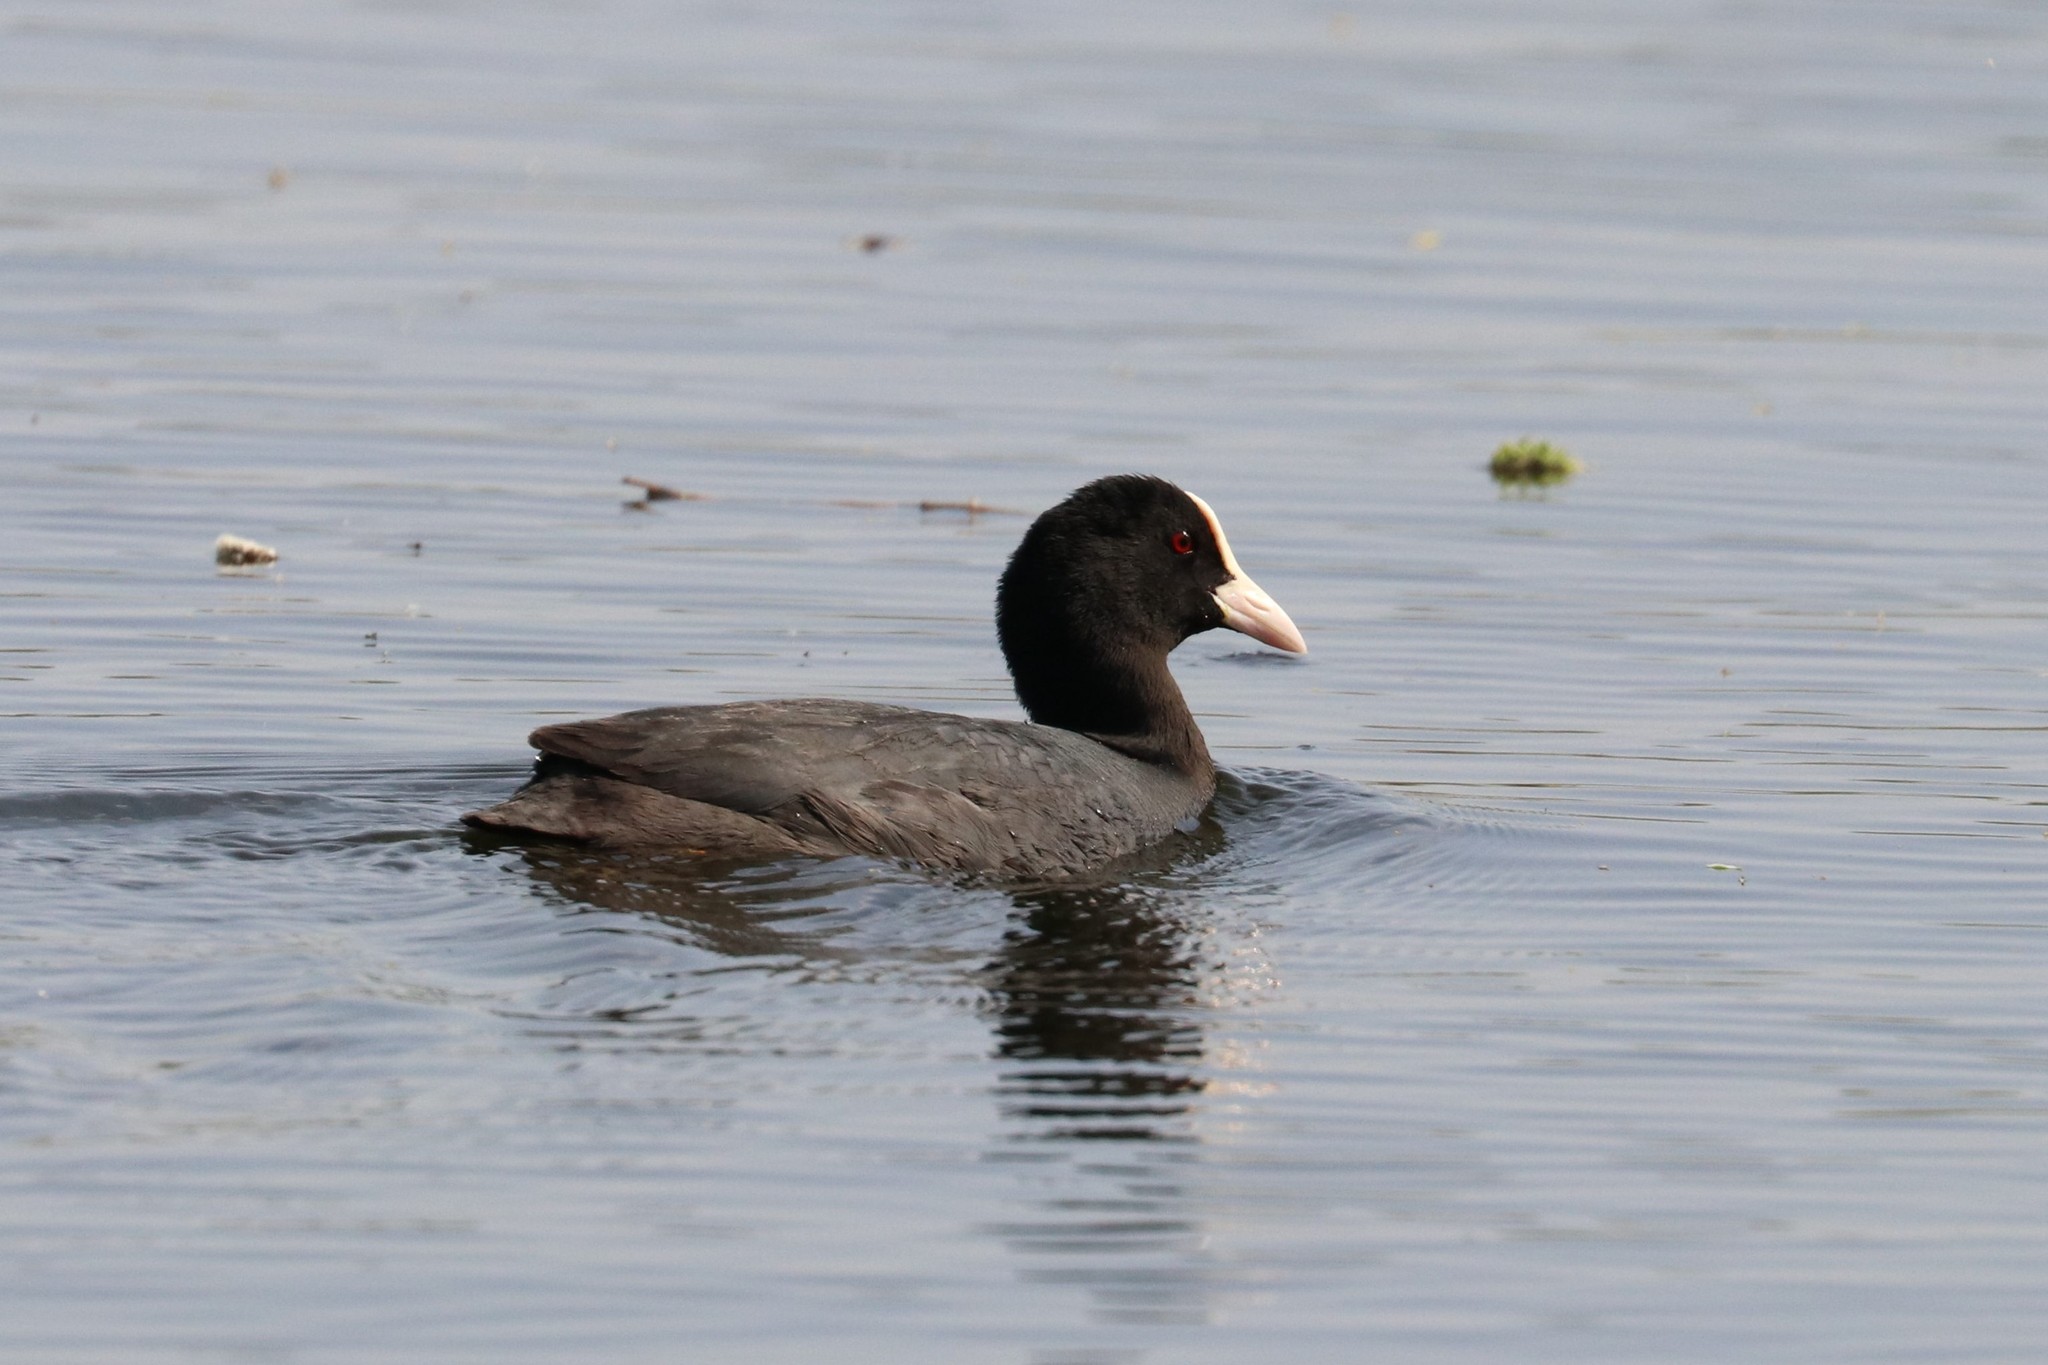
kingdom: Animalia
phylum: Chordata
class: Aves
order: Gruiformes
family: Rallidae
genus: Fulica
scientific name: Fulica atra
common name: Eurasian coot
